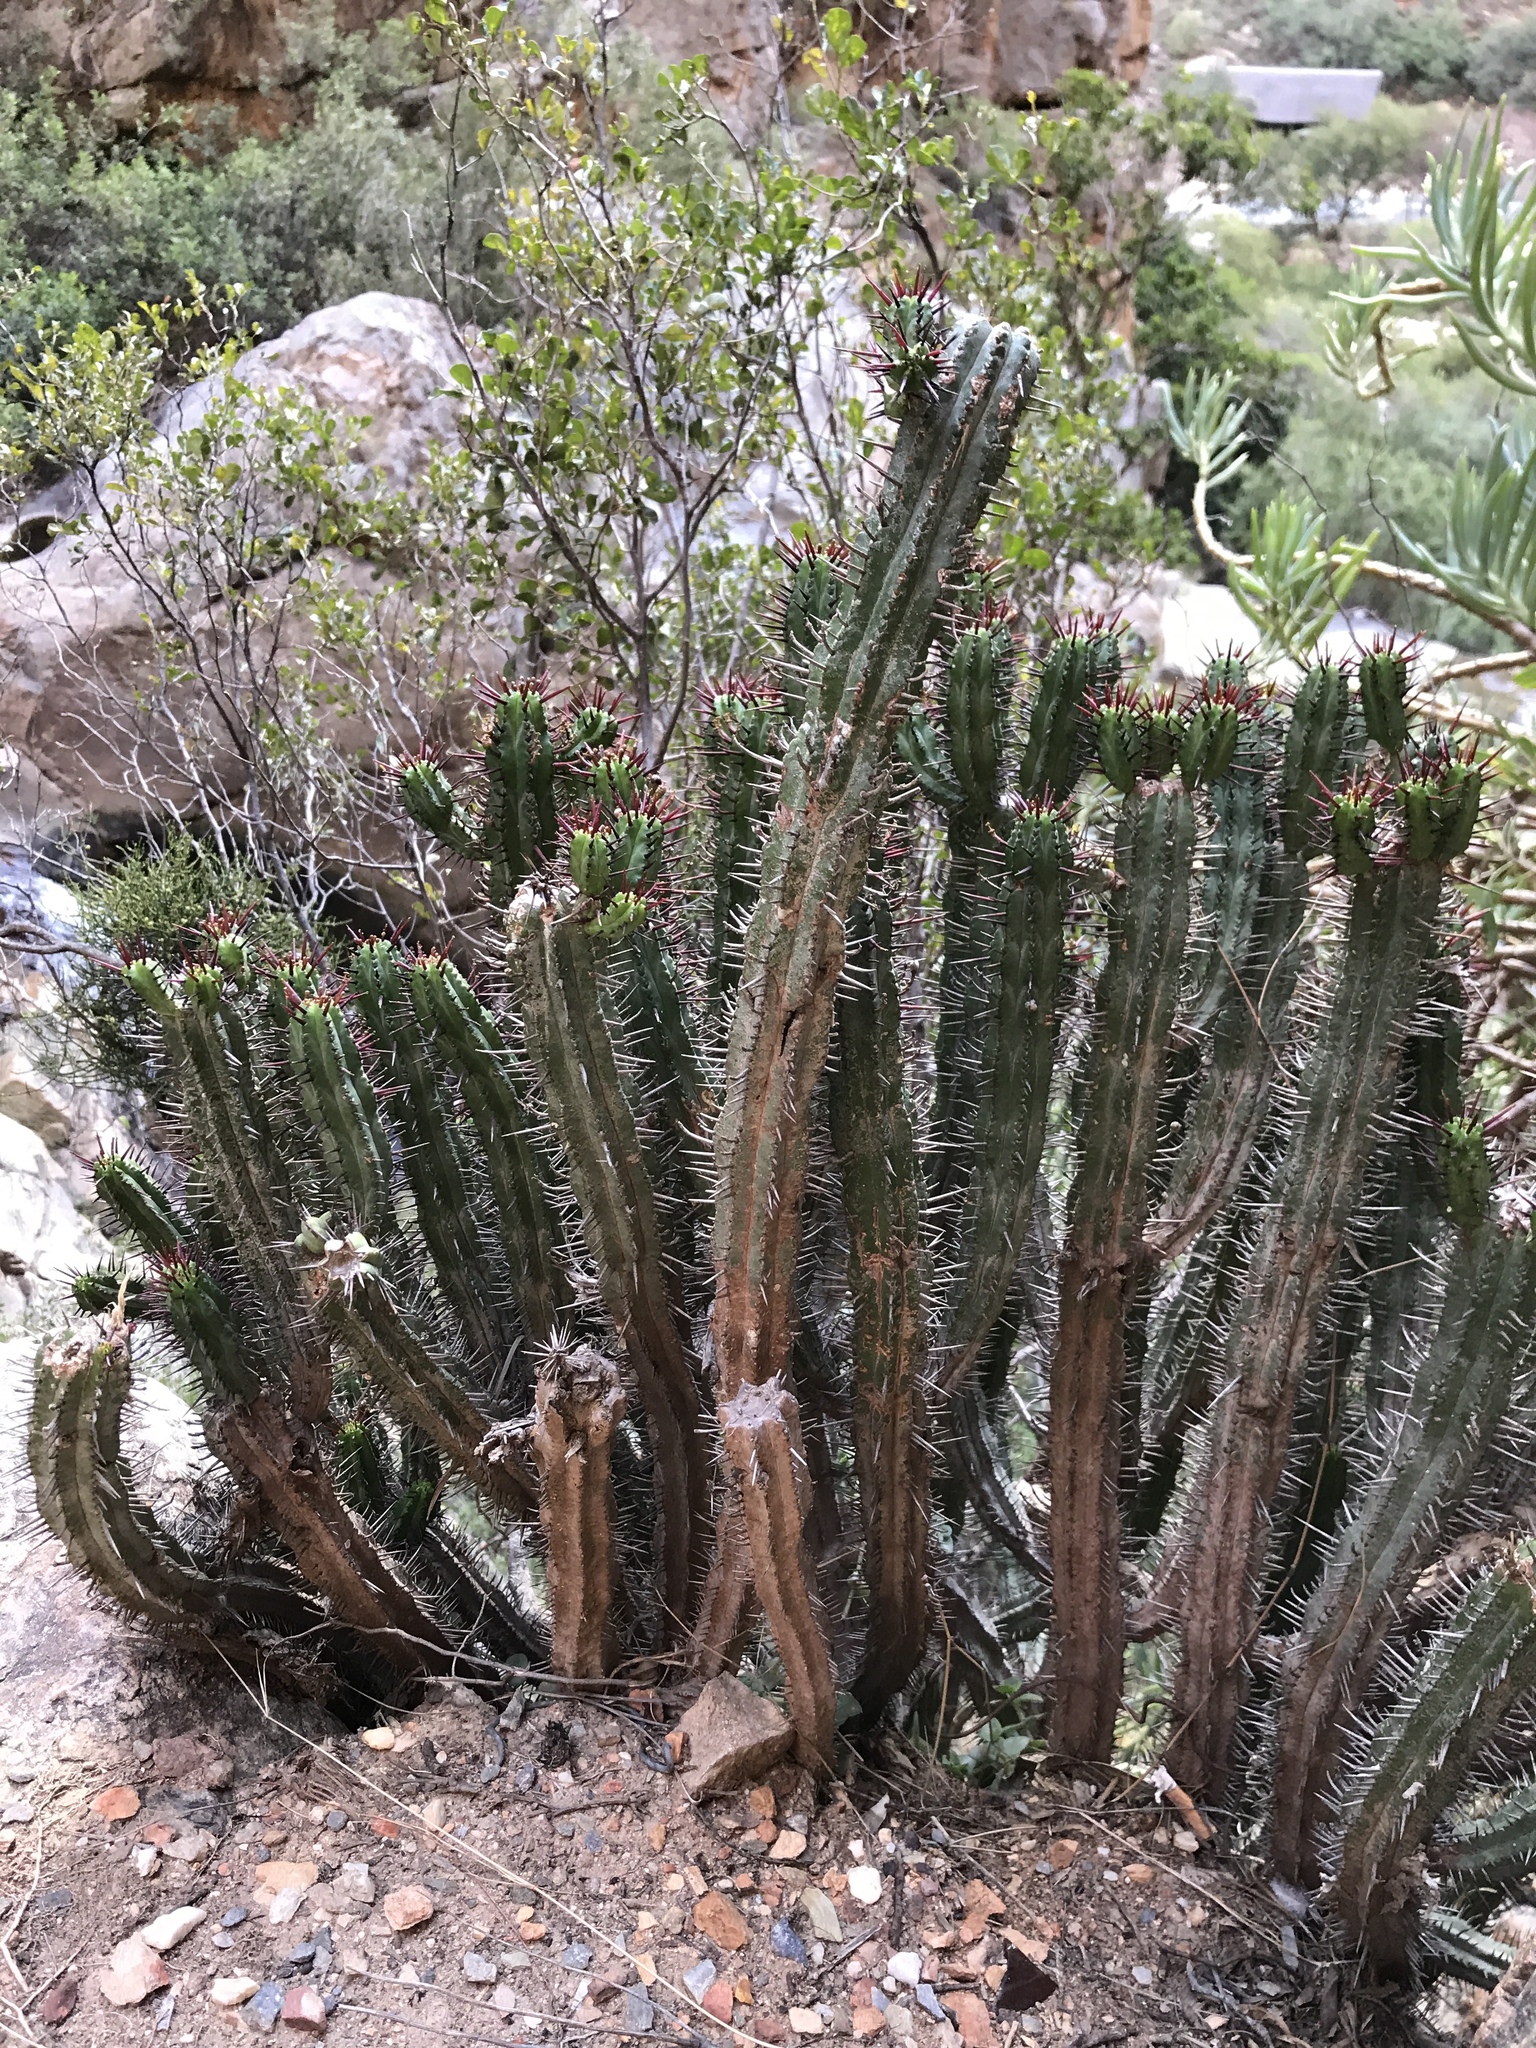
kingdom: Plantae
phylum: Tracheophyta
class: Magnoliopsida
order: Malpighiales
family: Euphorbiaceae
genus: Euphorbia
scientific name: Euphorbia heptagona
